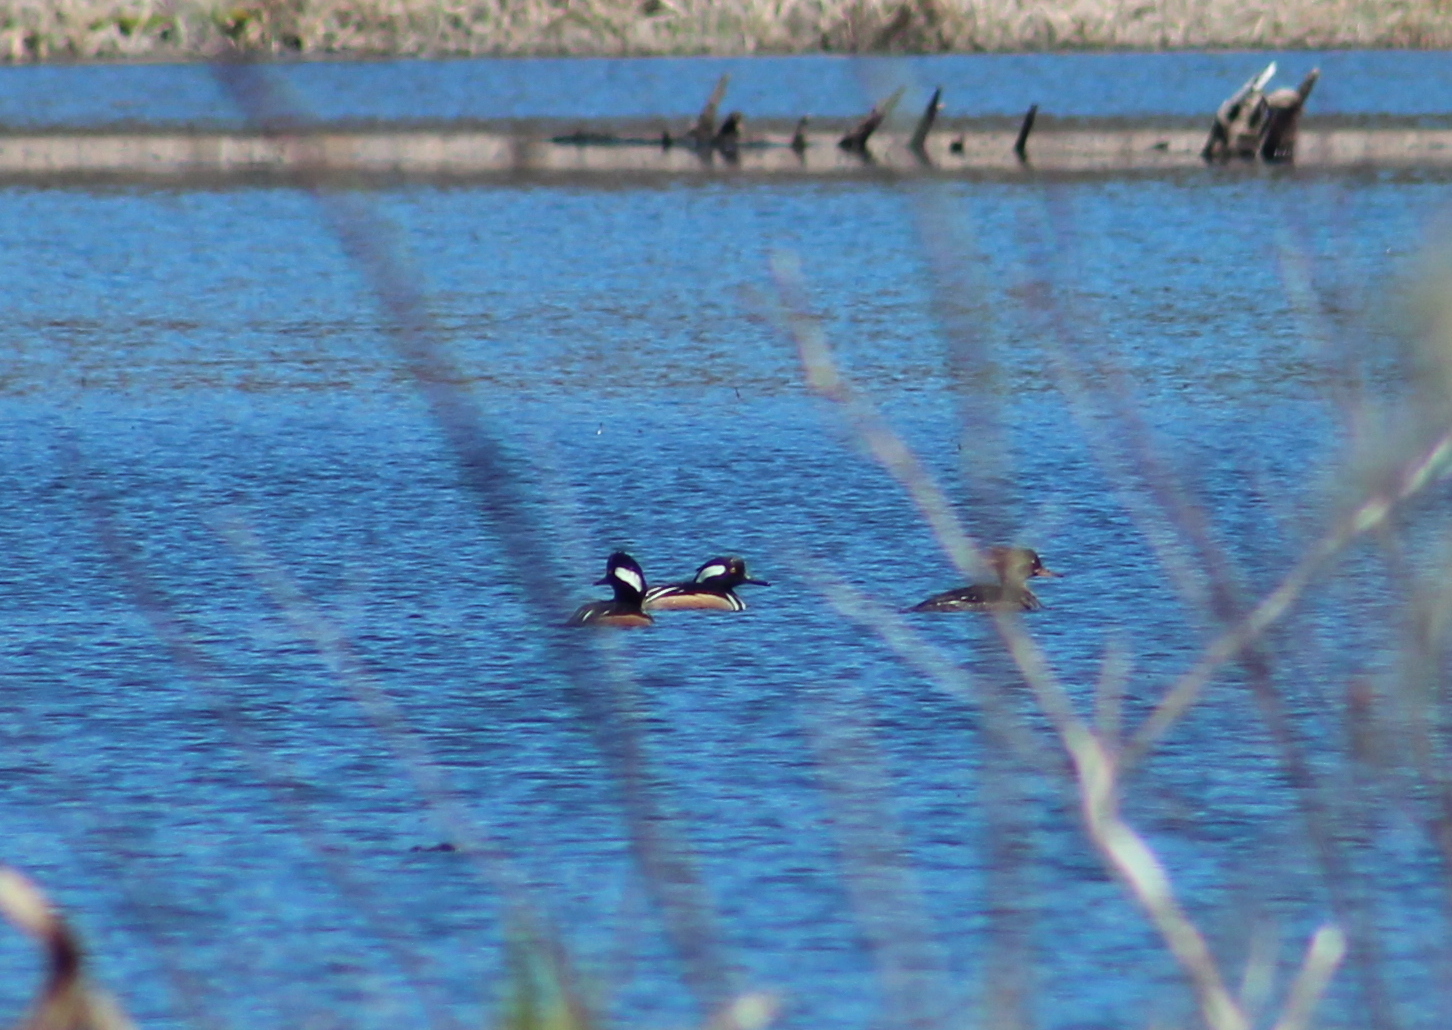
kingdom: Animalia
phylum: Chordata
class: Aves
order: Anseriformes
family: Anatidae
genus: Lophodytes
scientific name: Lophodytes cucullatus
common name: Hooded merganser
